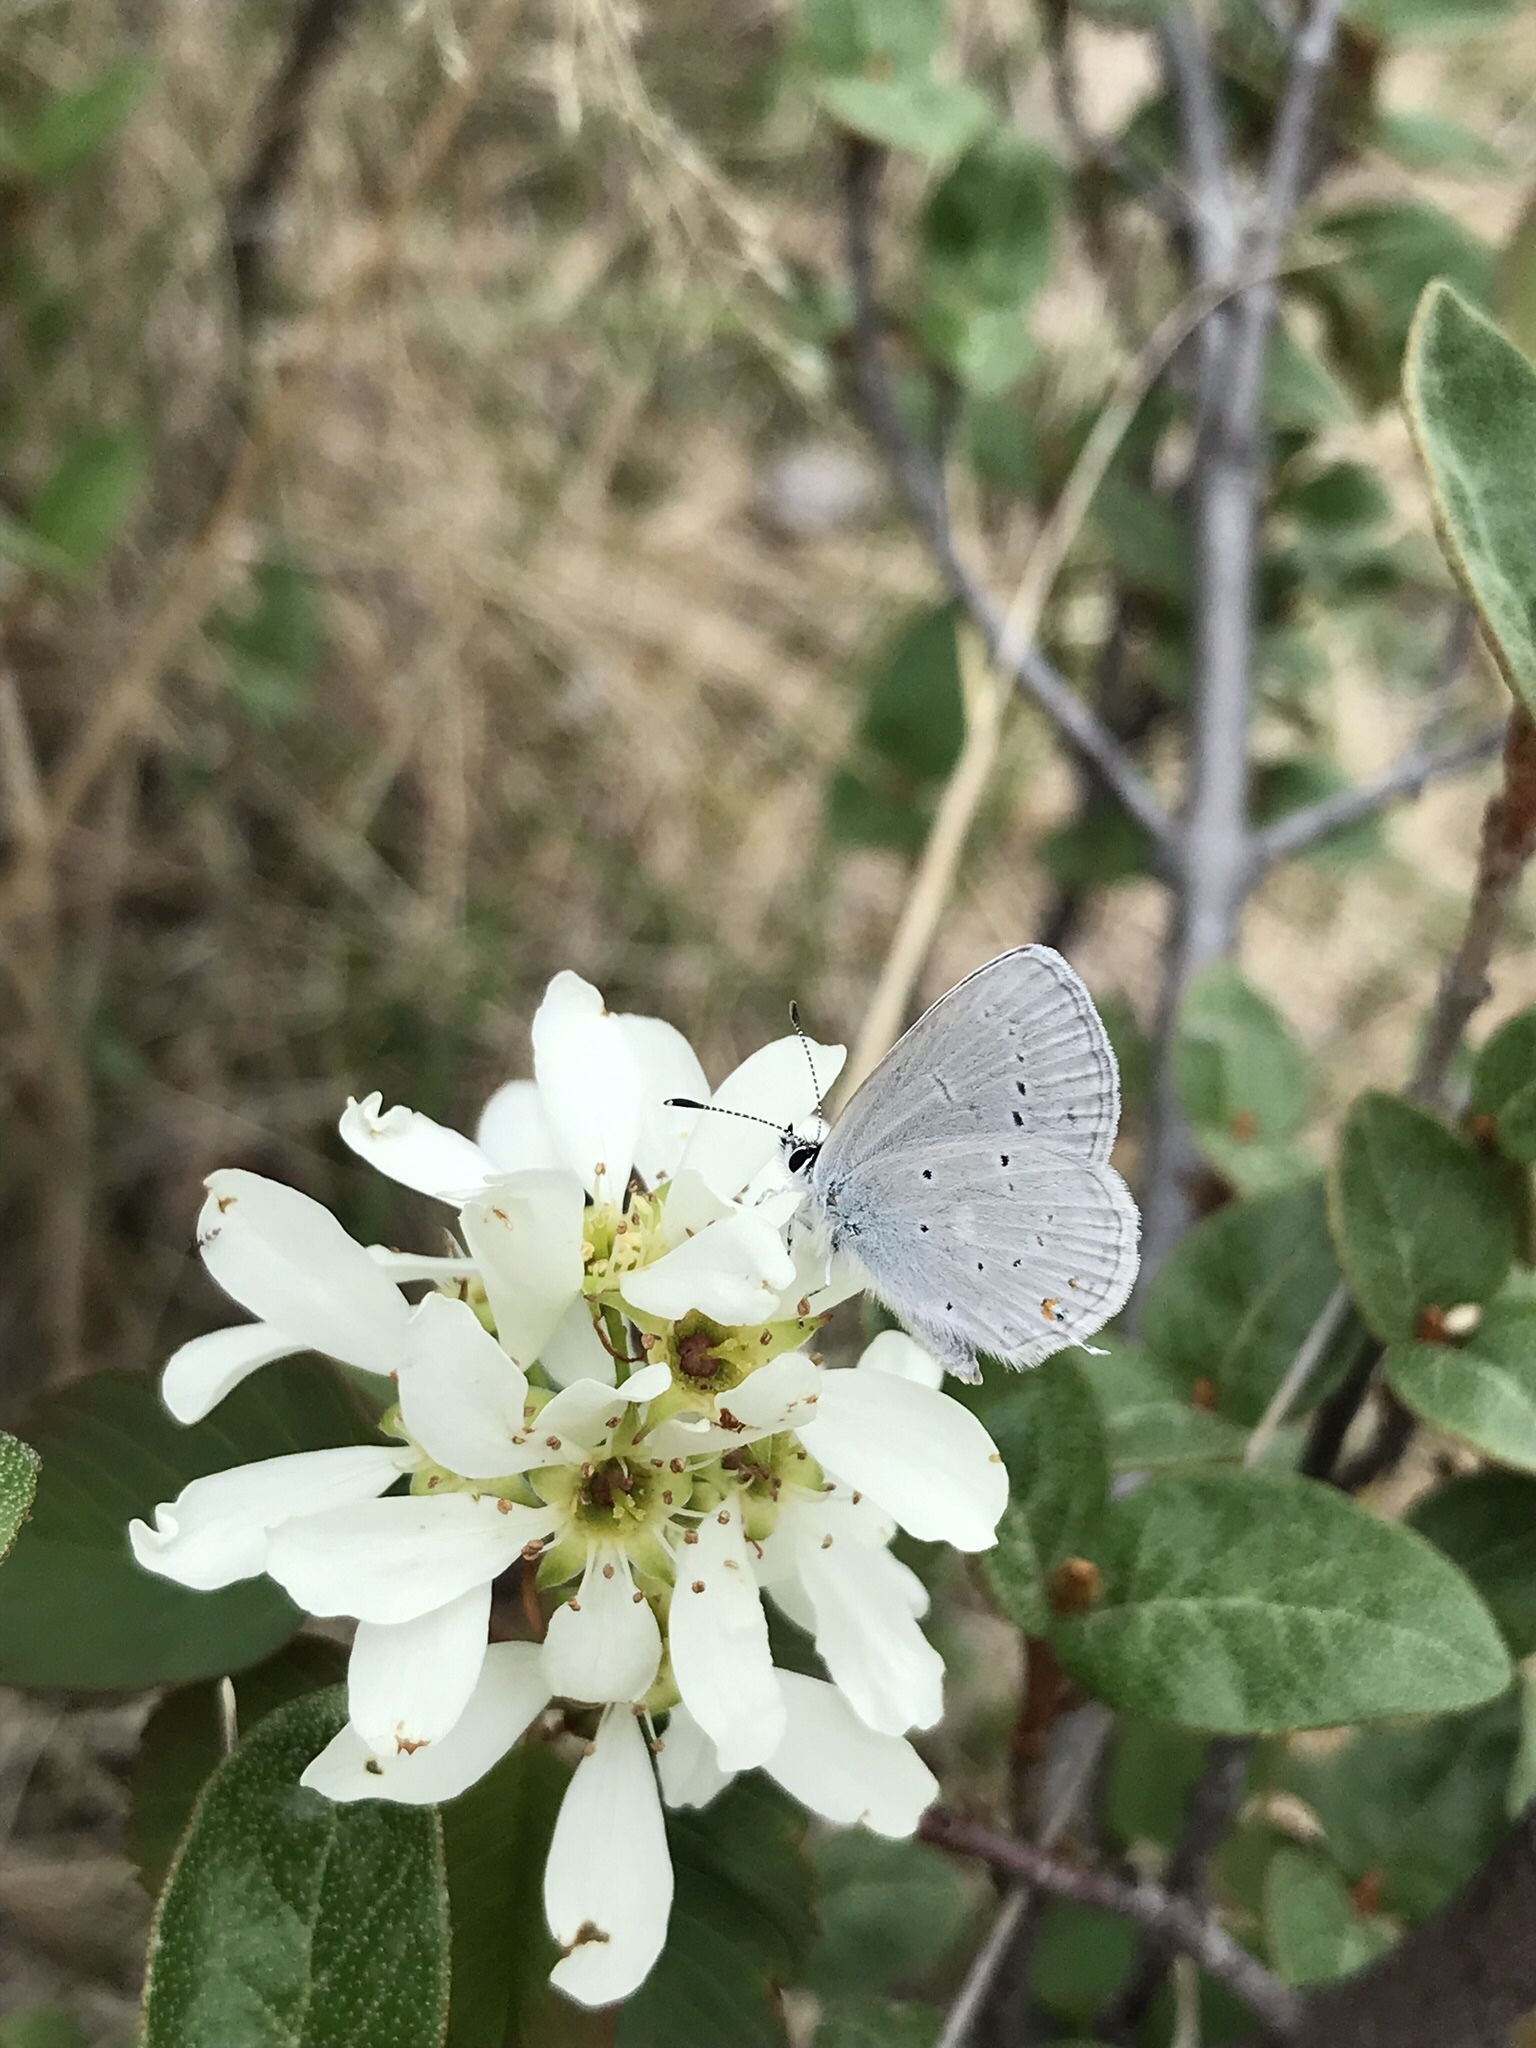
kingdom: Animalia
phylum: Arthropoda
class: Insecta
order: Lepidoptera
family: Lycaenidae
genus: Elkalyce
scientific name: Elkalyce amyntula
